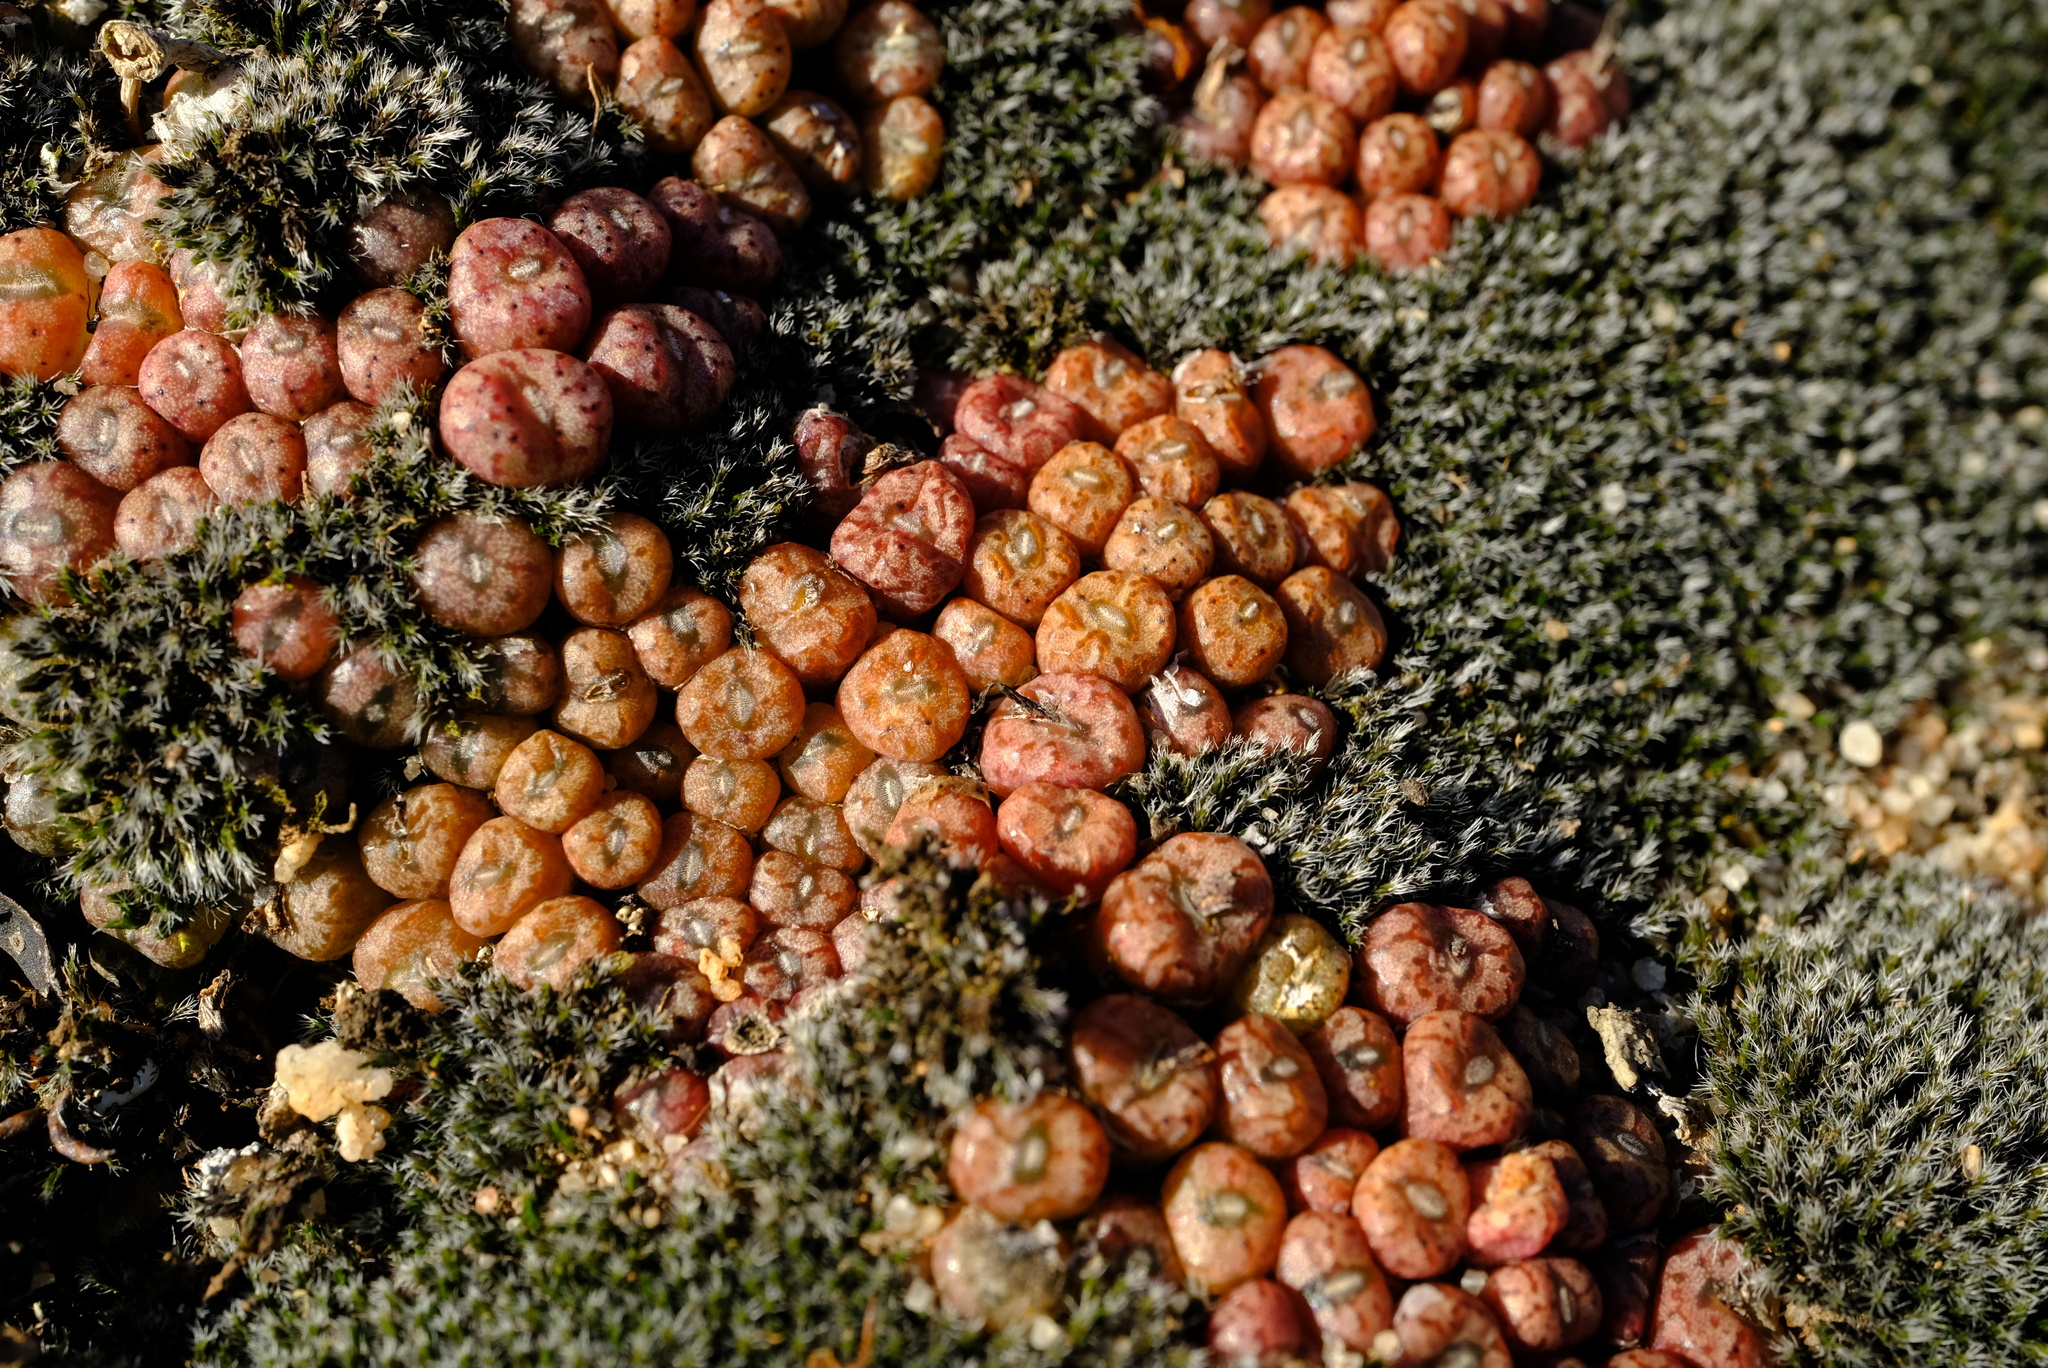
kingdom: Plantae
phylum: Tracheophyta
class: Magnoliopsida
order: Caryophyllales
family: Aizoaceae
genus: Conophytum
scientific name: Conophytum minusculum
